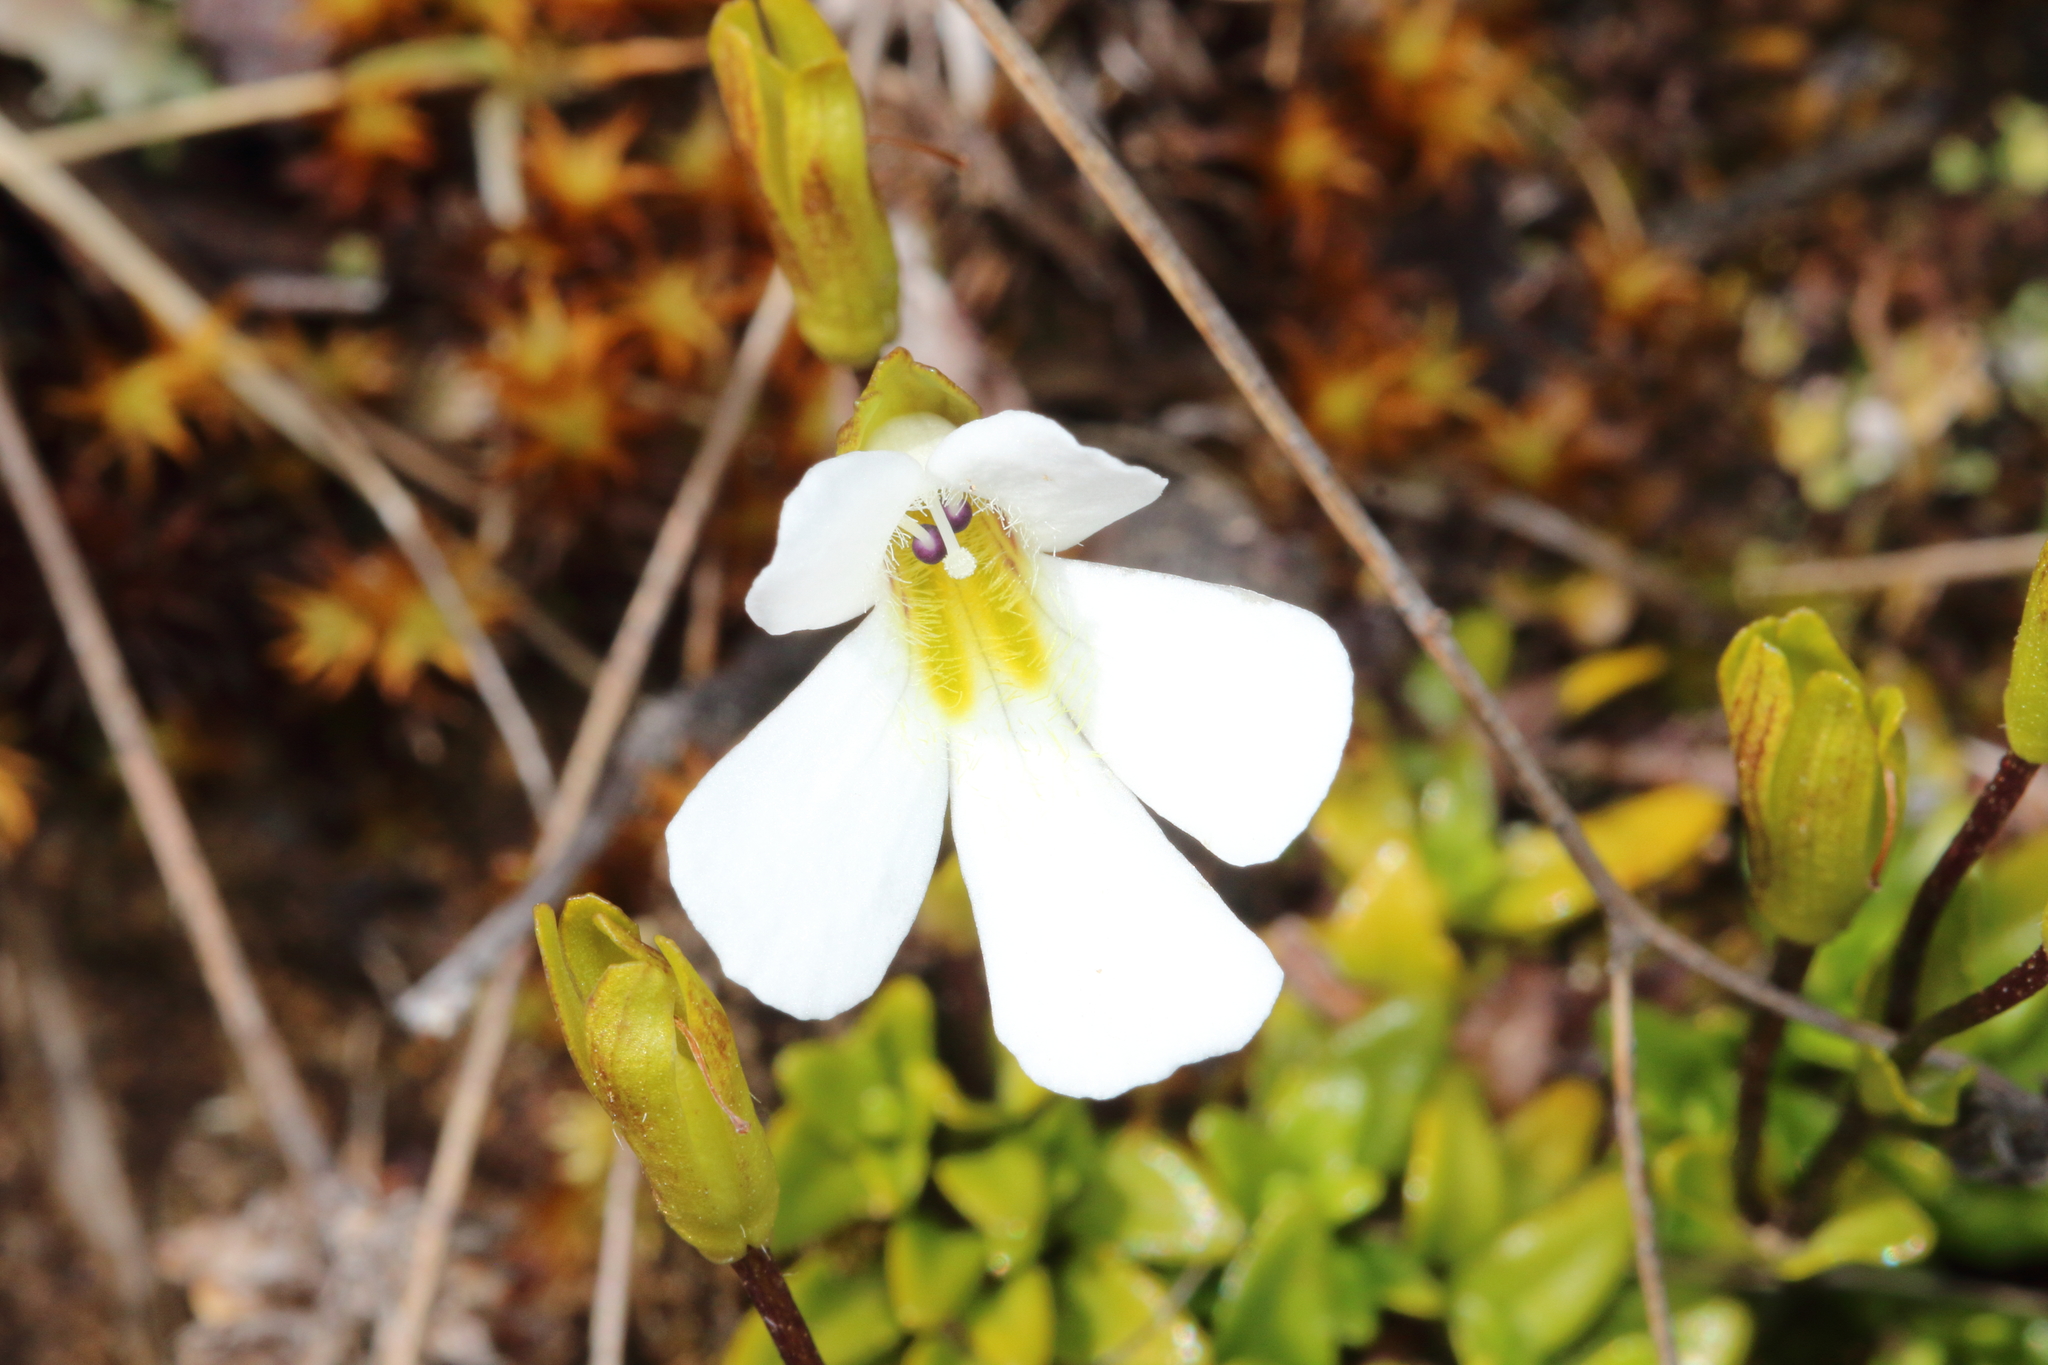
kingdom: Plantae
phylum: Tracheophyta
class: Magnoliopsida
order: Lamiales
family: Plantaginaceae
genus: Ourisia
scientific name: Ourisia caespitosa
